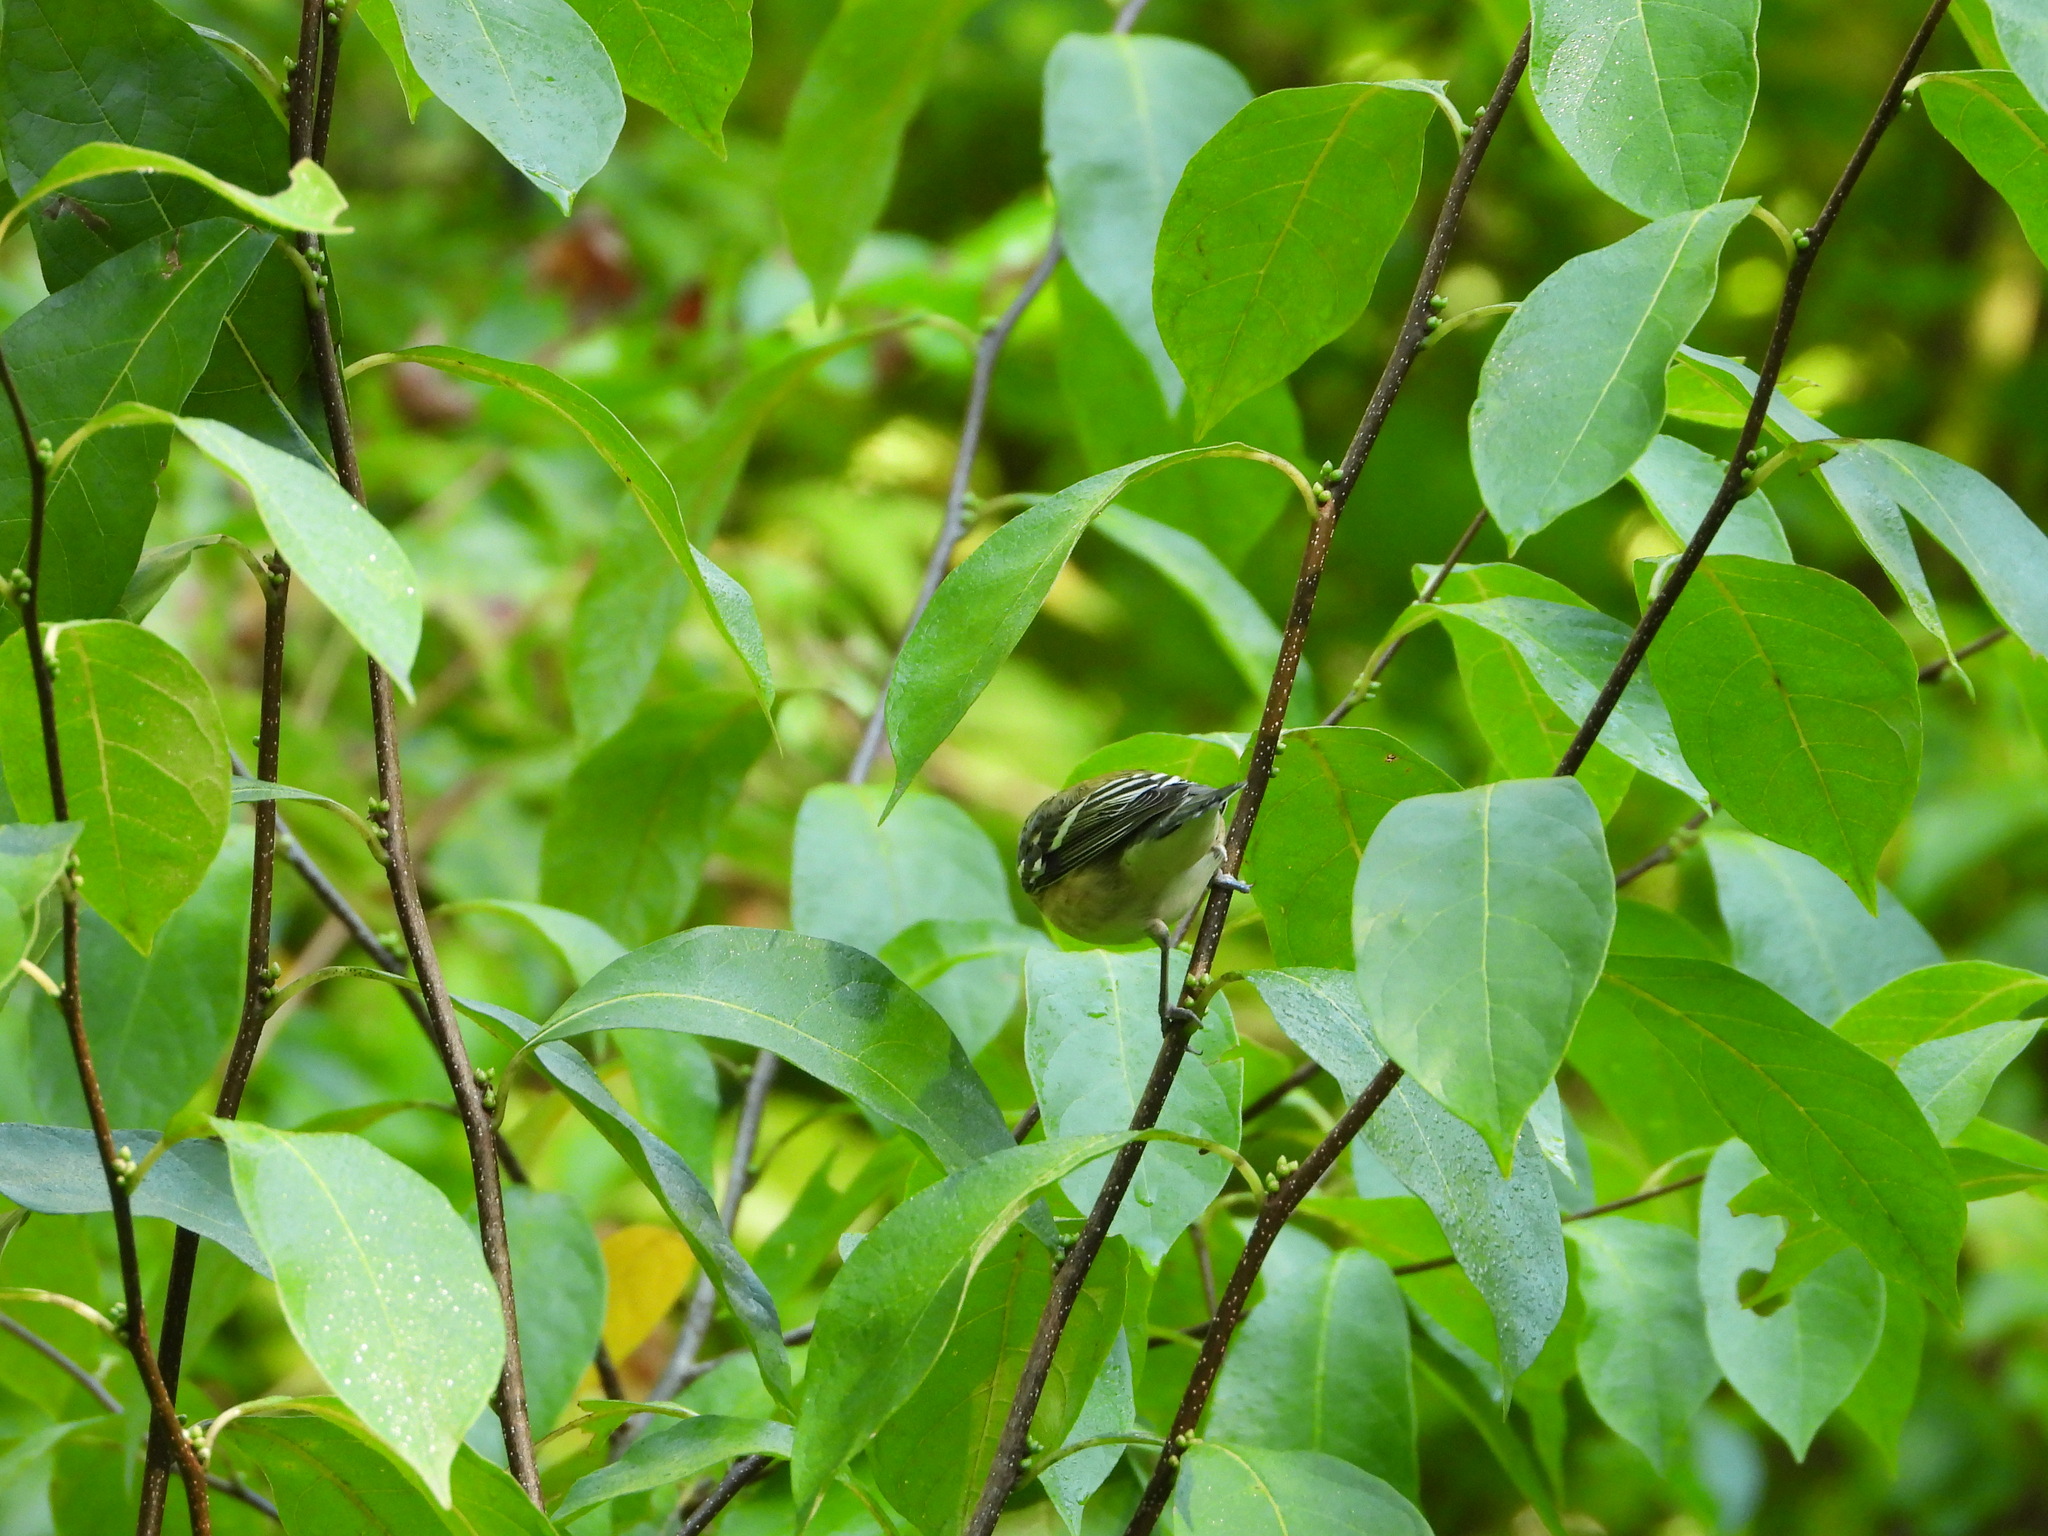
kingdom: Animalia
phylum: Chordata
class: Aves
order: Passeriformes
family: Parulidae
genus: Setophaga
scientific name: Setophaga castanea
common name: Bay-breasted warbler
